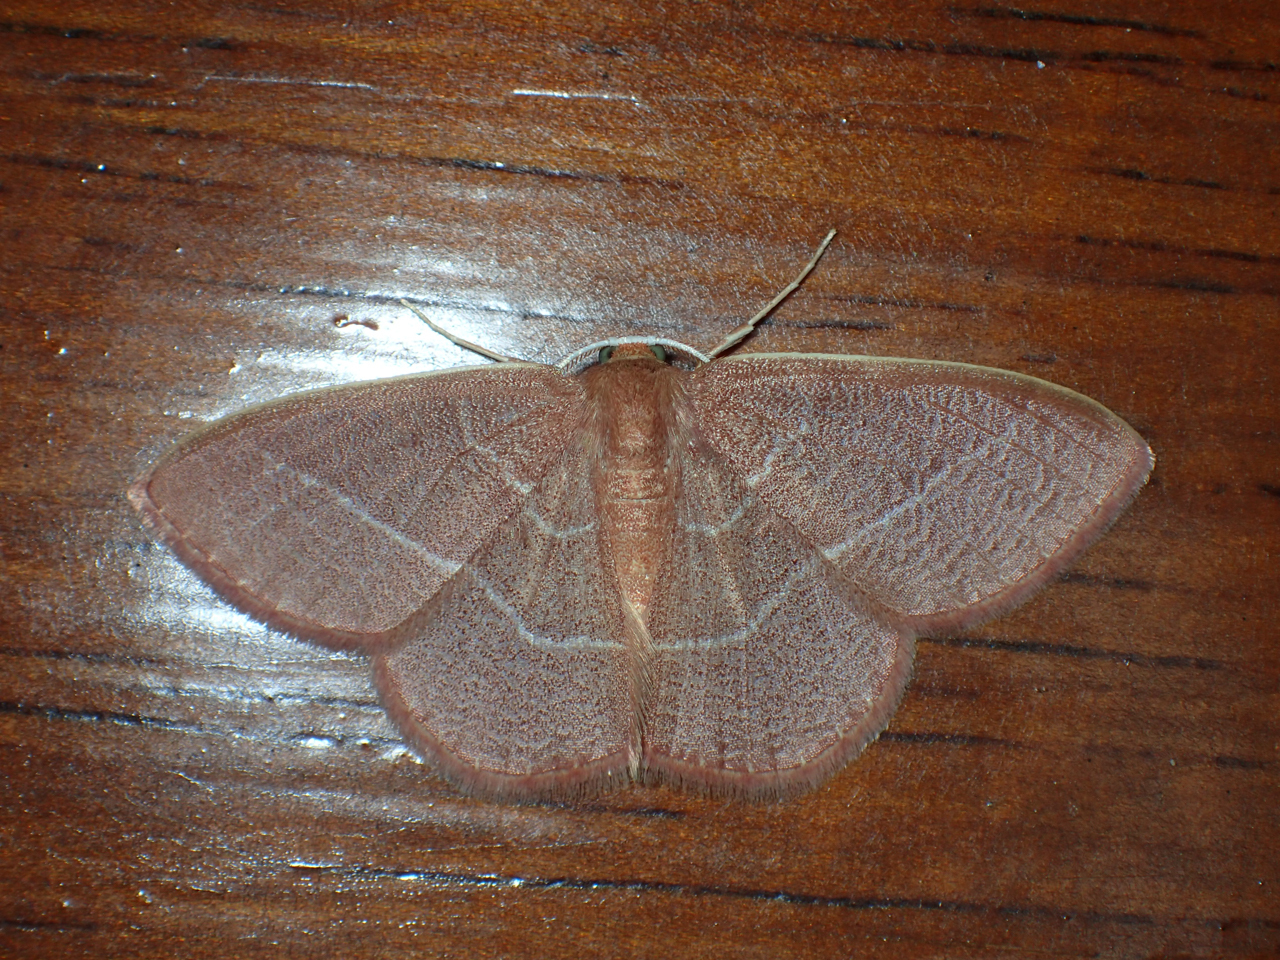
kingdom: Animalia
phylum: Arthropoda
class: Insecta
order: Lepidoptera
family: Geometridae
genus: Nemoria
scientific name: Nemoria bistriaria
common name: Red-fringed emerald
